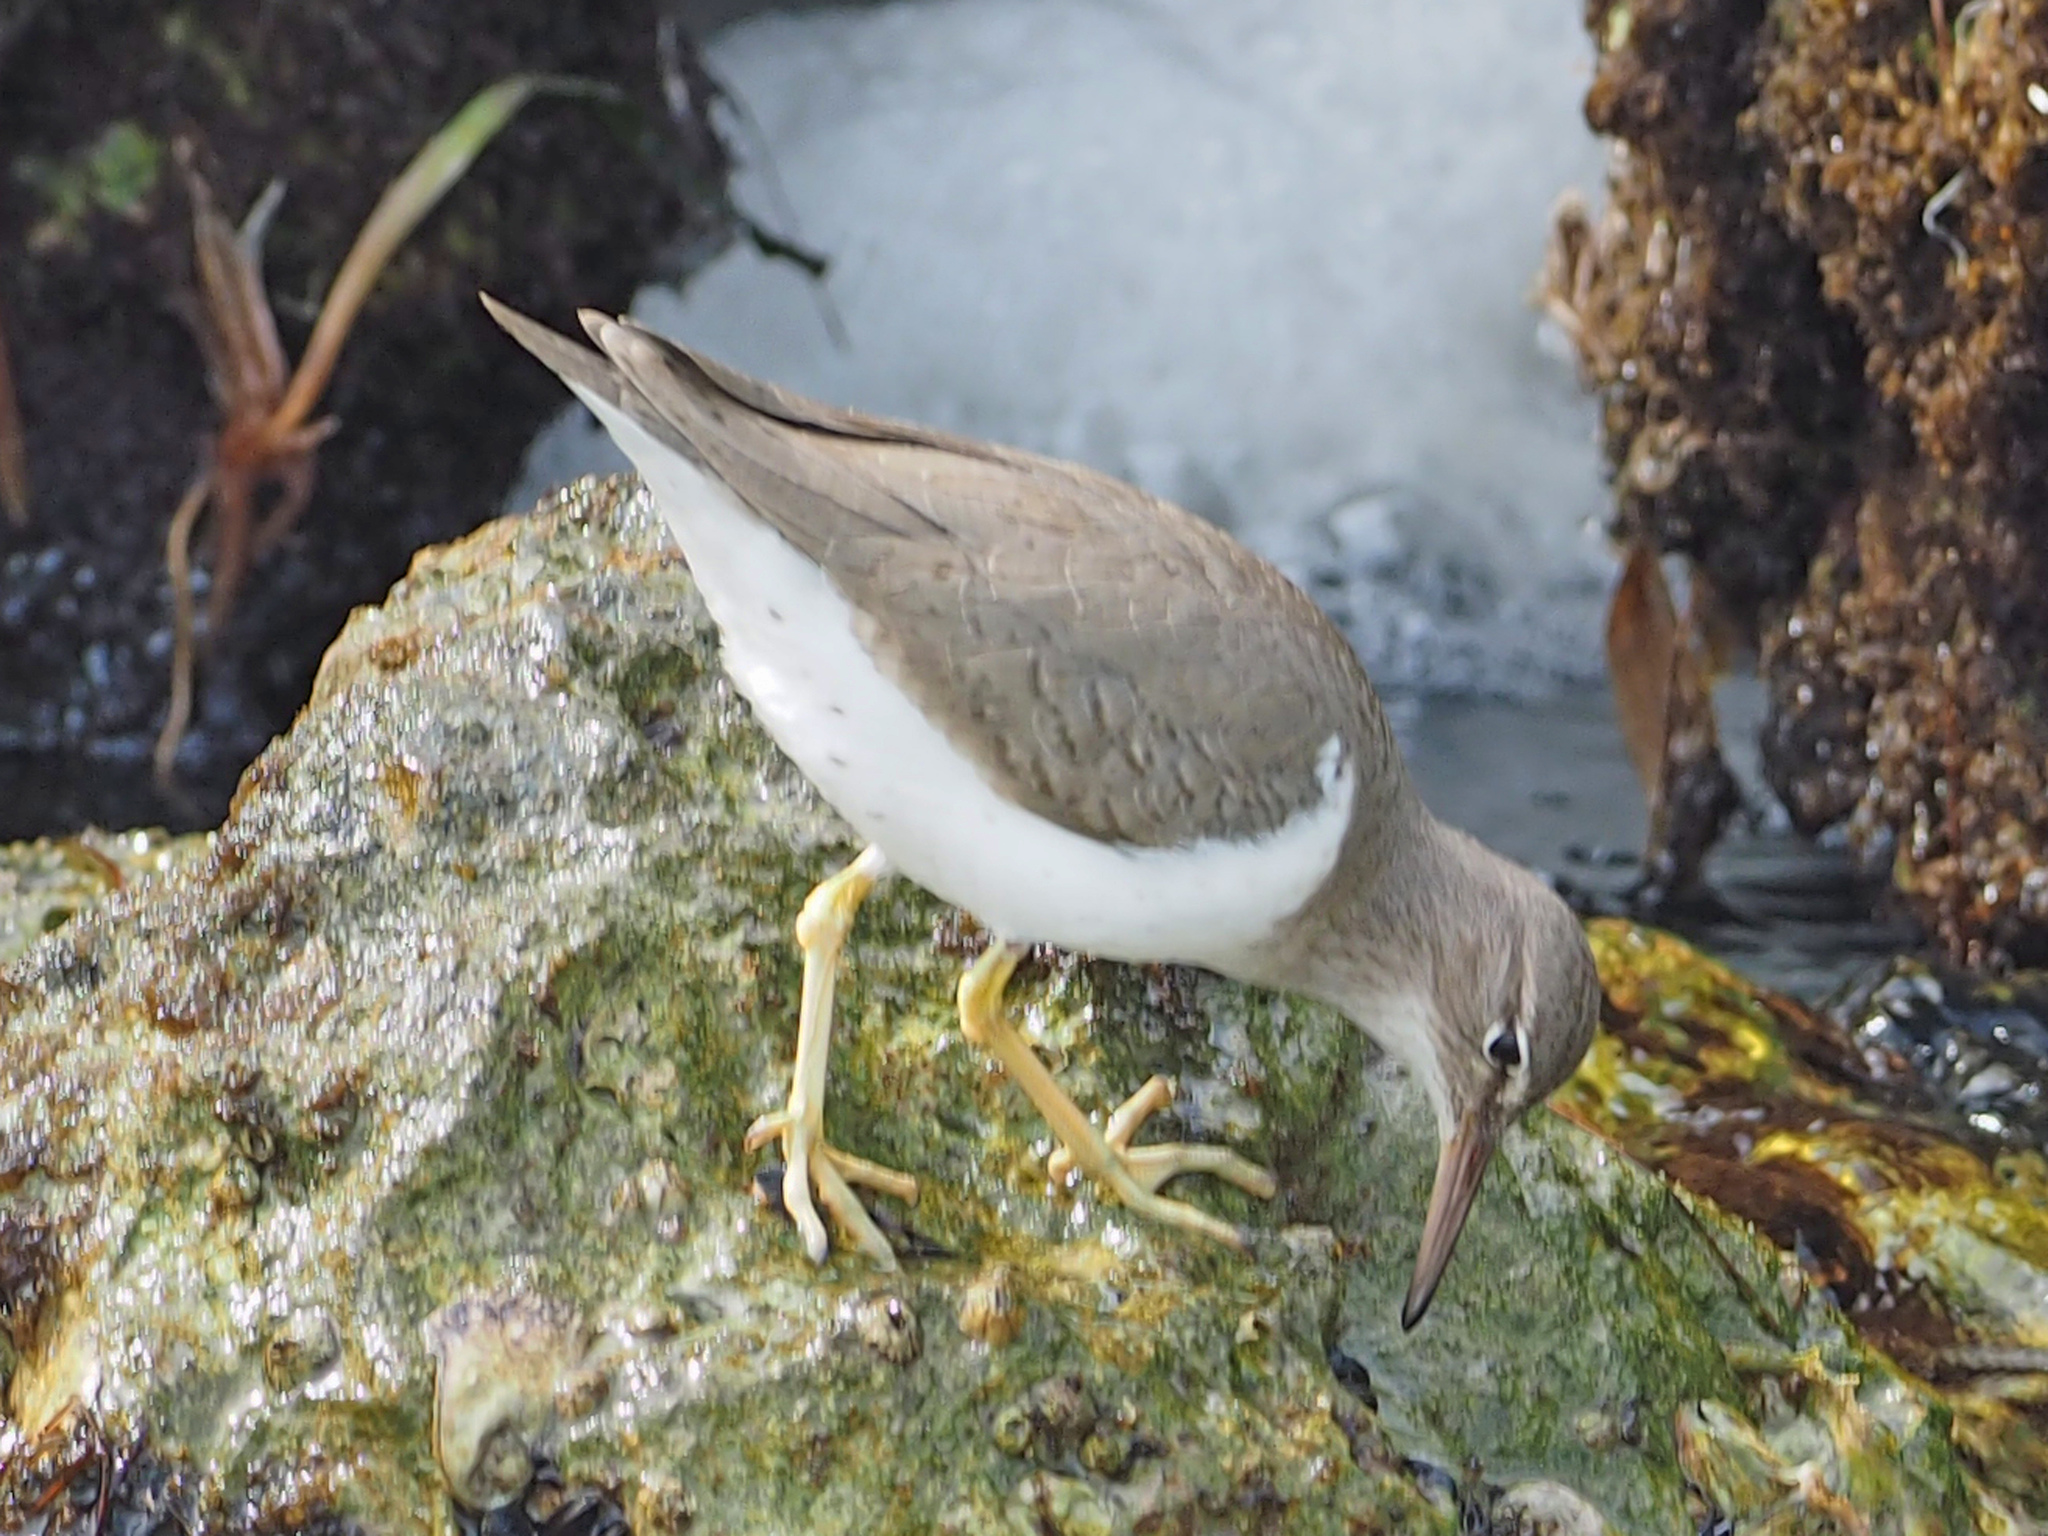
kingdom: Animalia
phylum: Chordata
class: Aves
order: Charadriiformes
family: Scolopacidae
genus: Actitis
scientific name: Actitis macularius
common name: Spotted sandpiper
